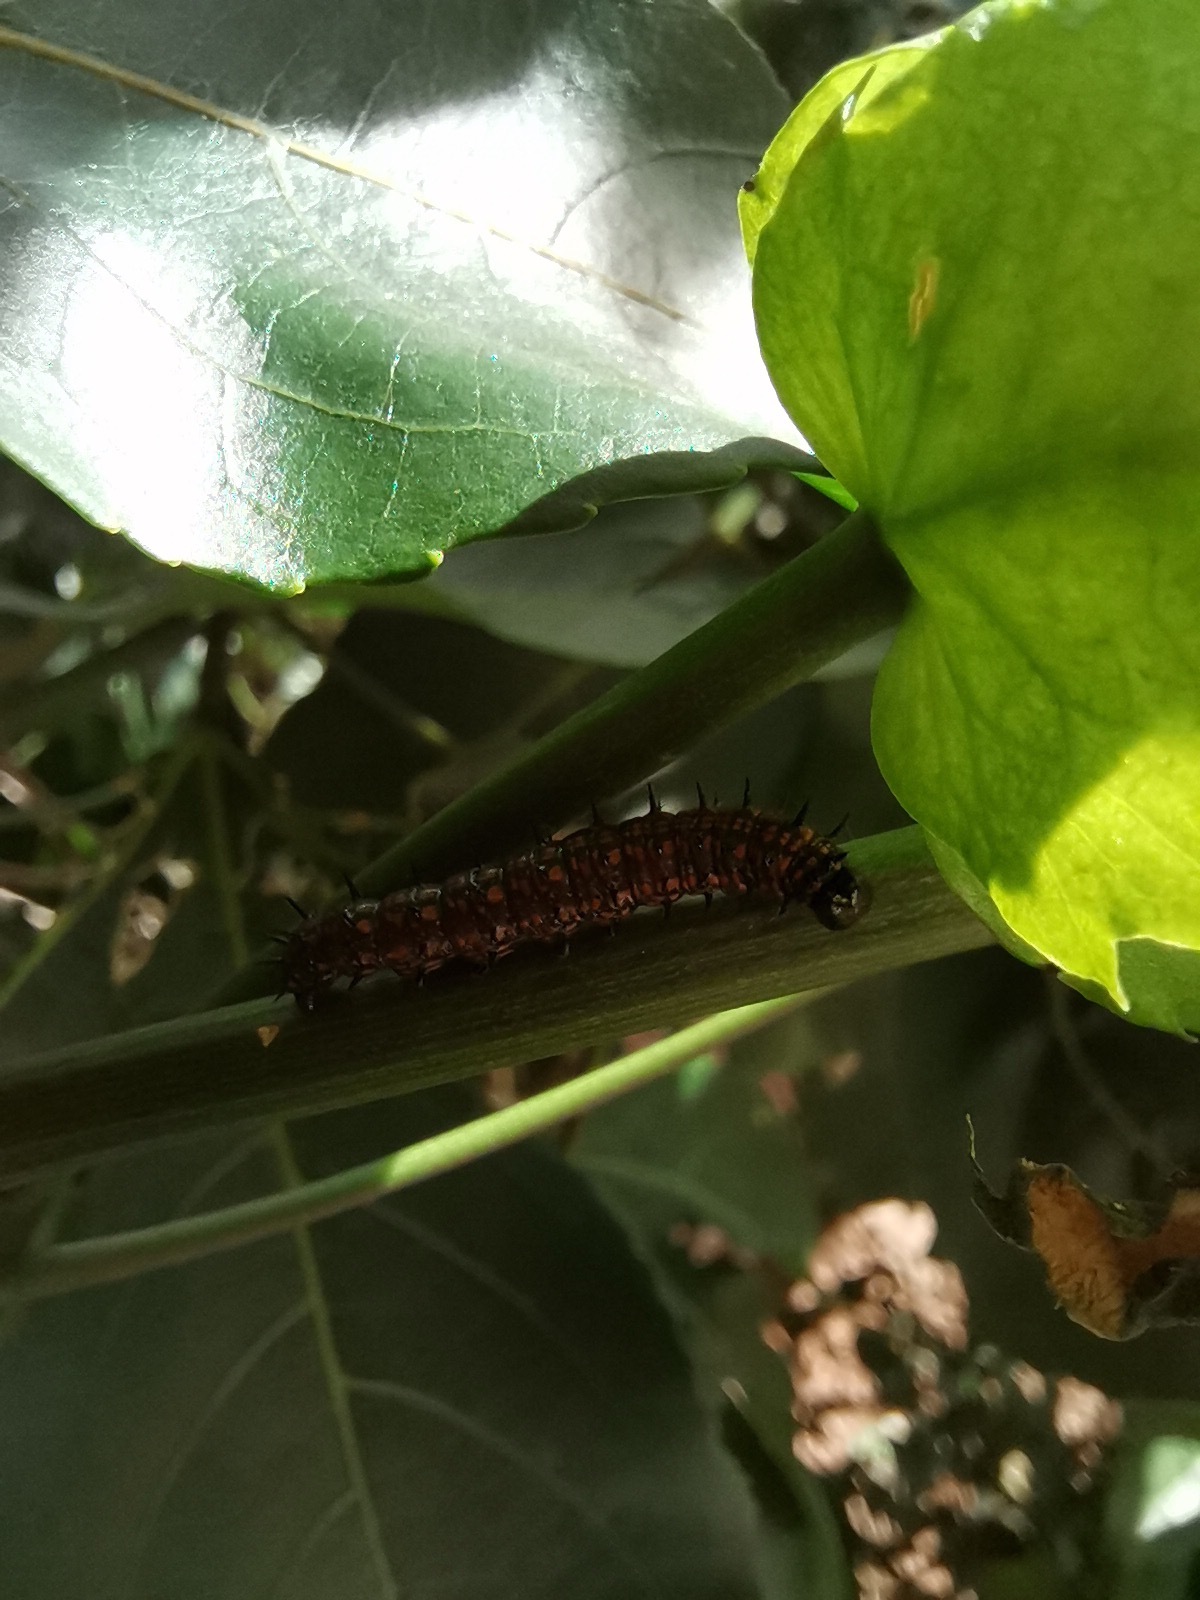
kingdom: Animalia
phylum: Arthropoda
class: Insecta
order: Lepidoptera
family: Nymphalidae
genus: Dione
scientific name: Dione juno
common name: Juno silverspot
